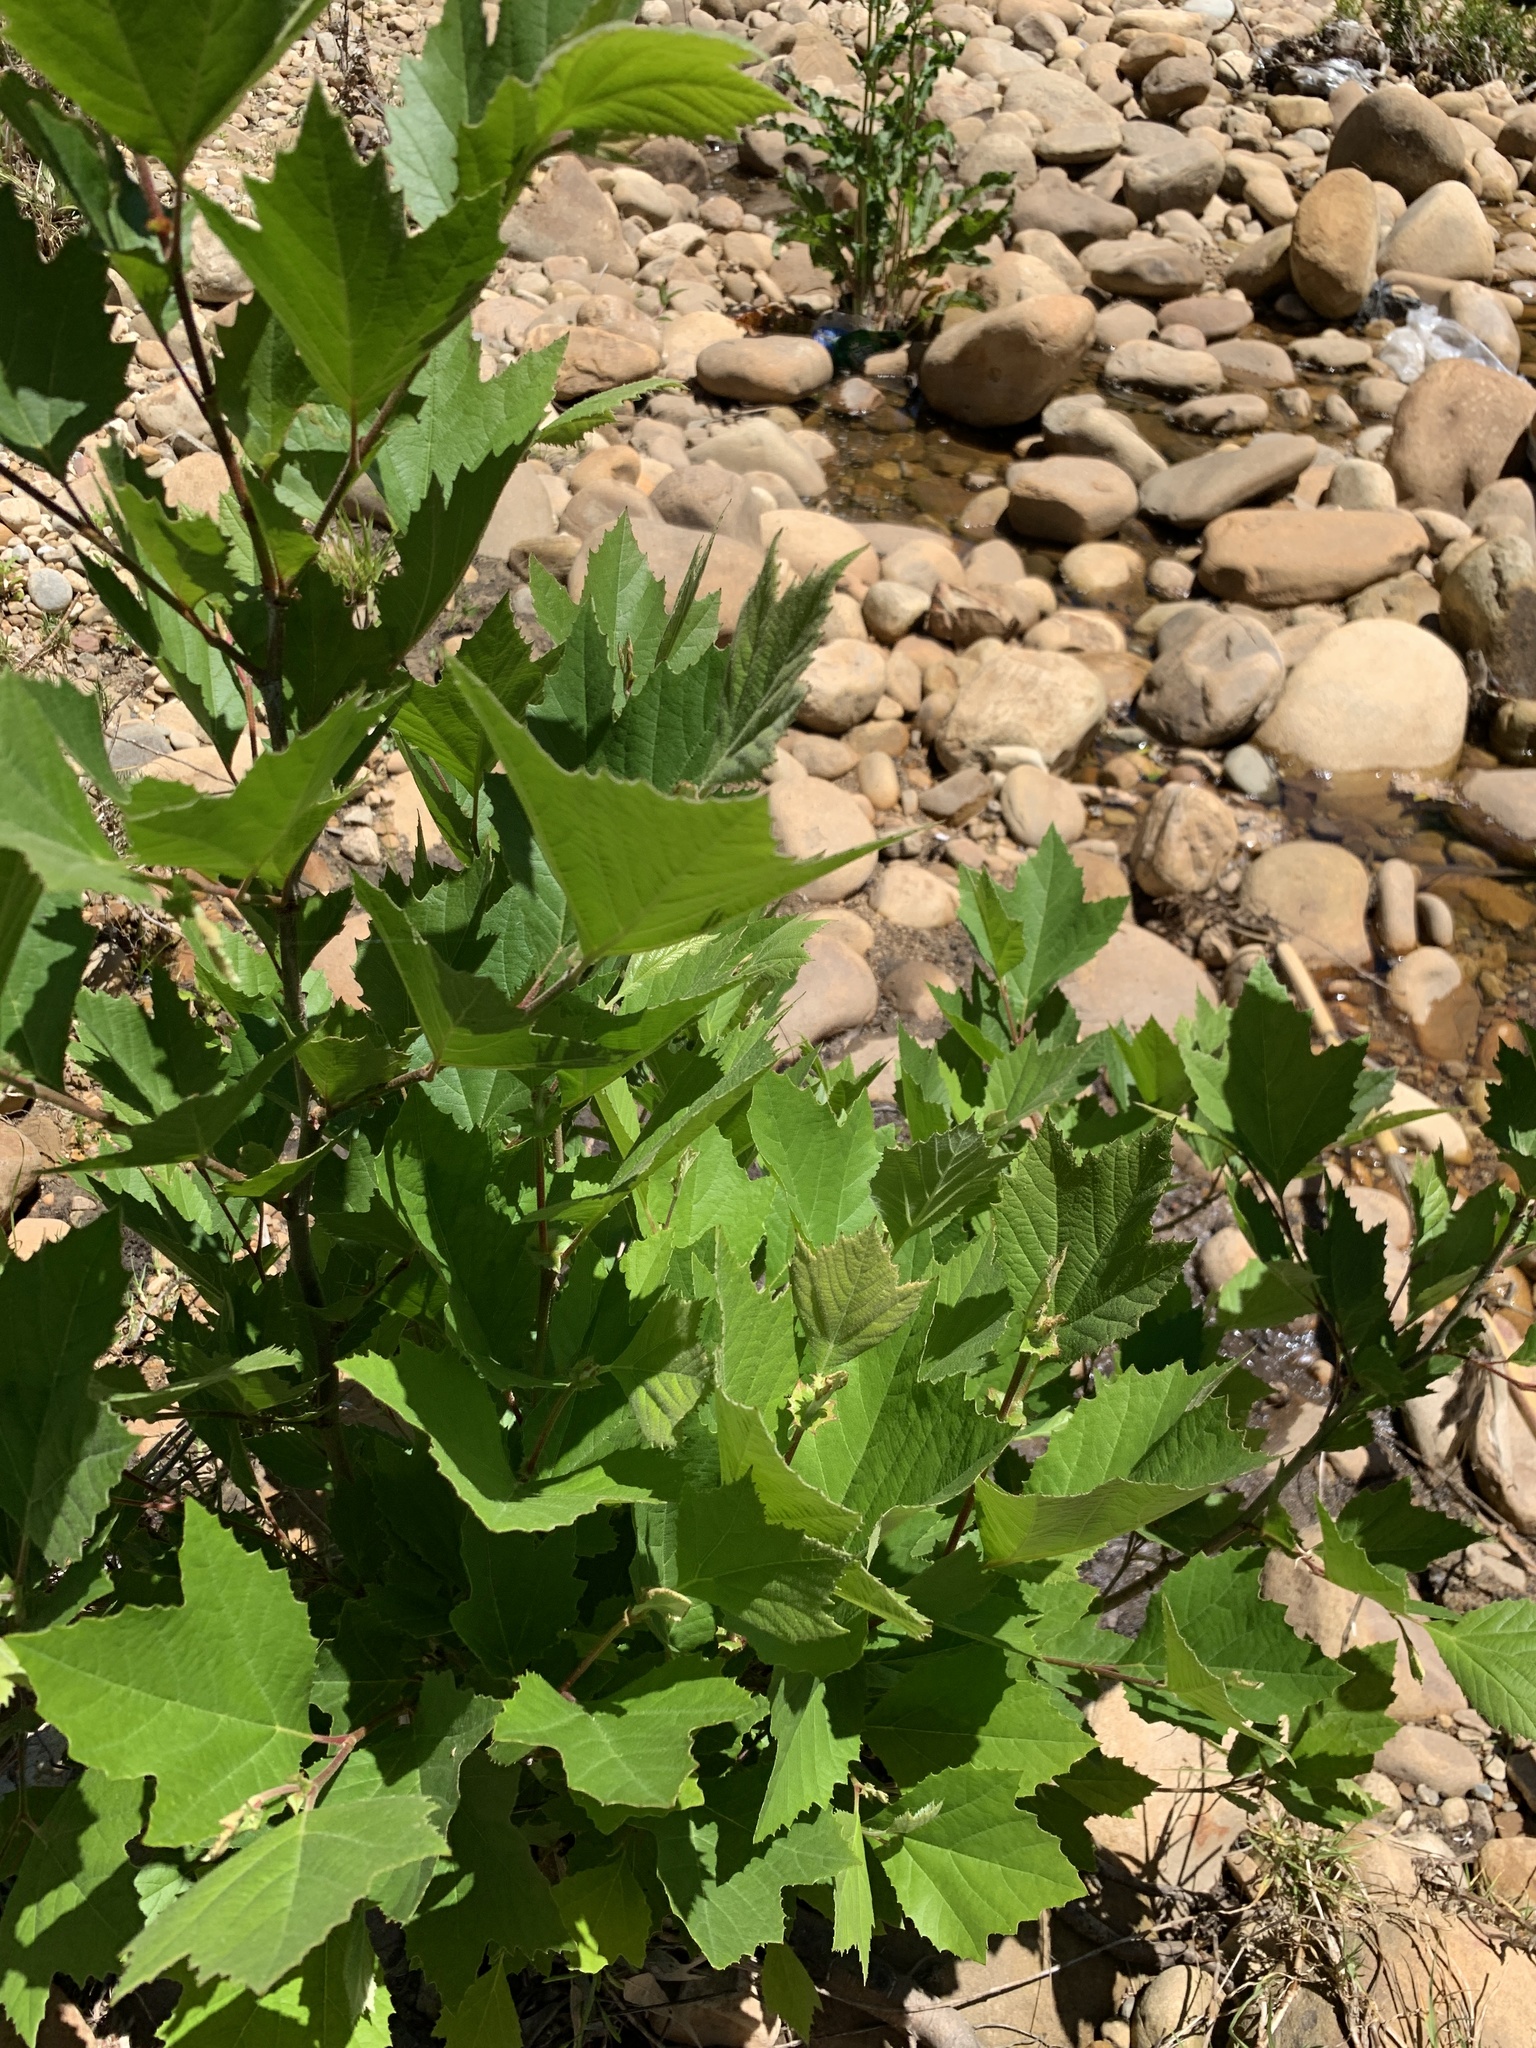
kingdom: Plantae
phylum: Tracheophyta
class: Magnoliopsida
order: Proteales
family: Platanaceae
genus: Platanus
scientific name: Platanus hispanica
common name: London plane
